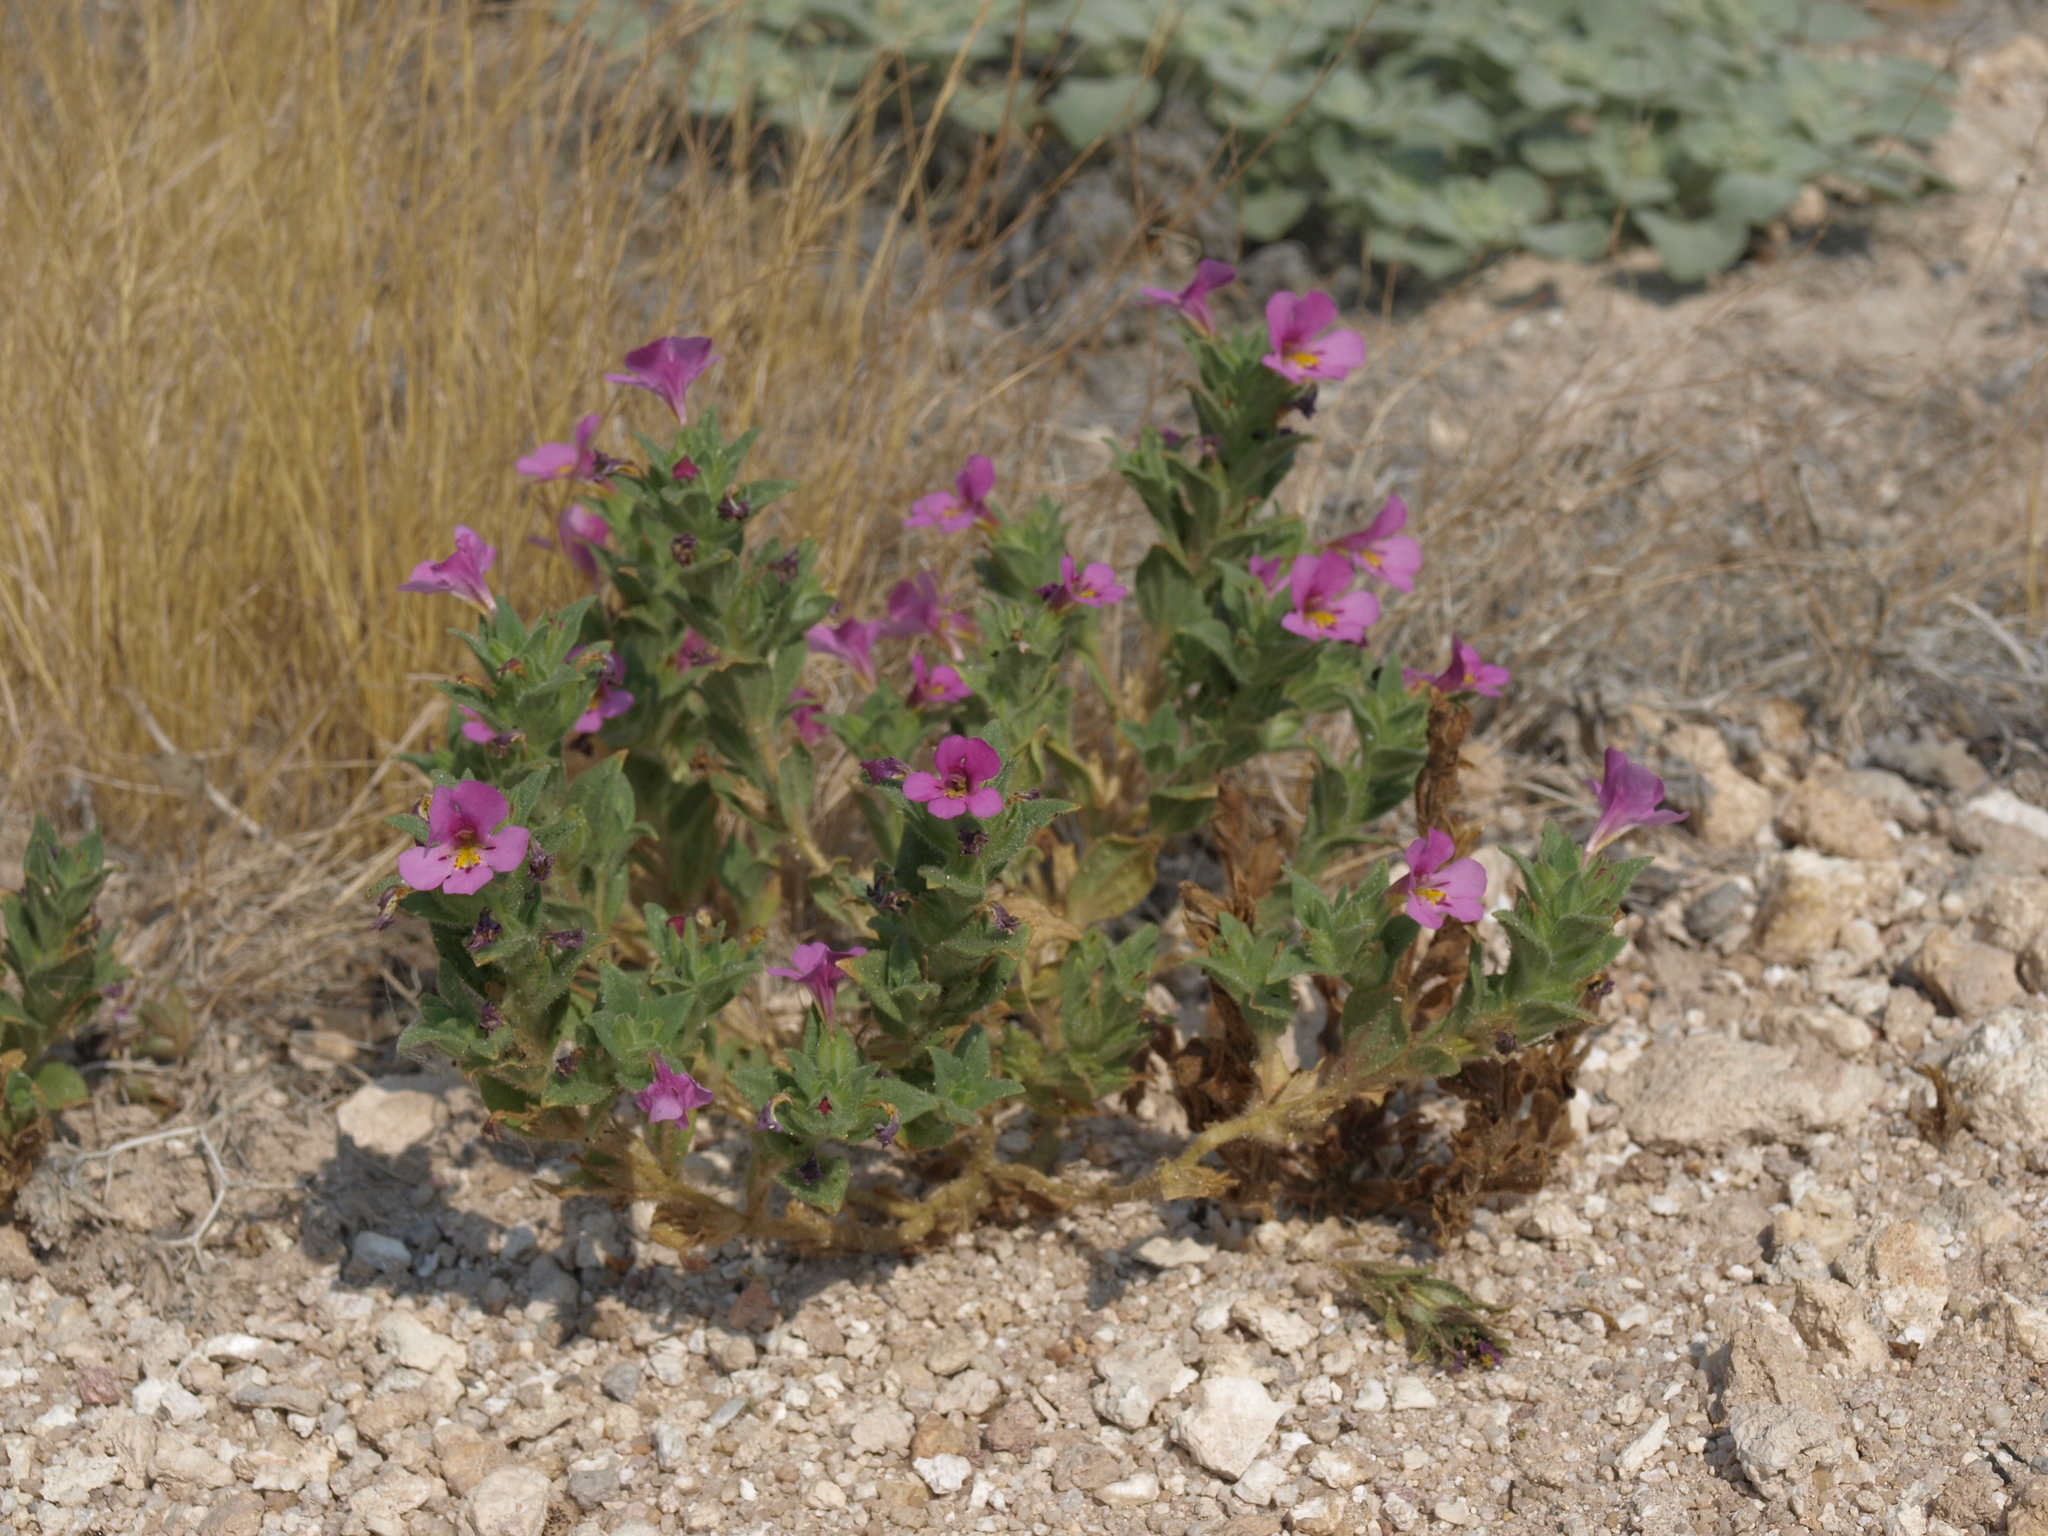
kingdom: Plantae
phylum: Tracheophyta
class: Magnoliopsida
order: Lamiales
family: Phrymaceae
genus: Diplacus
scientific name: Diplacus ovatus
